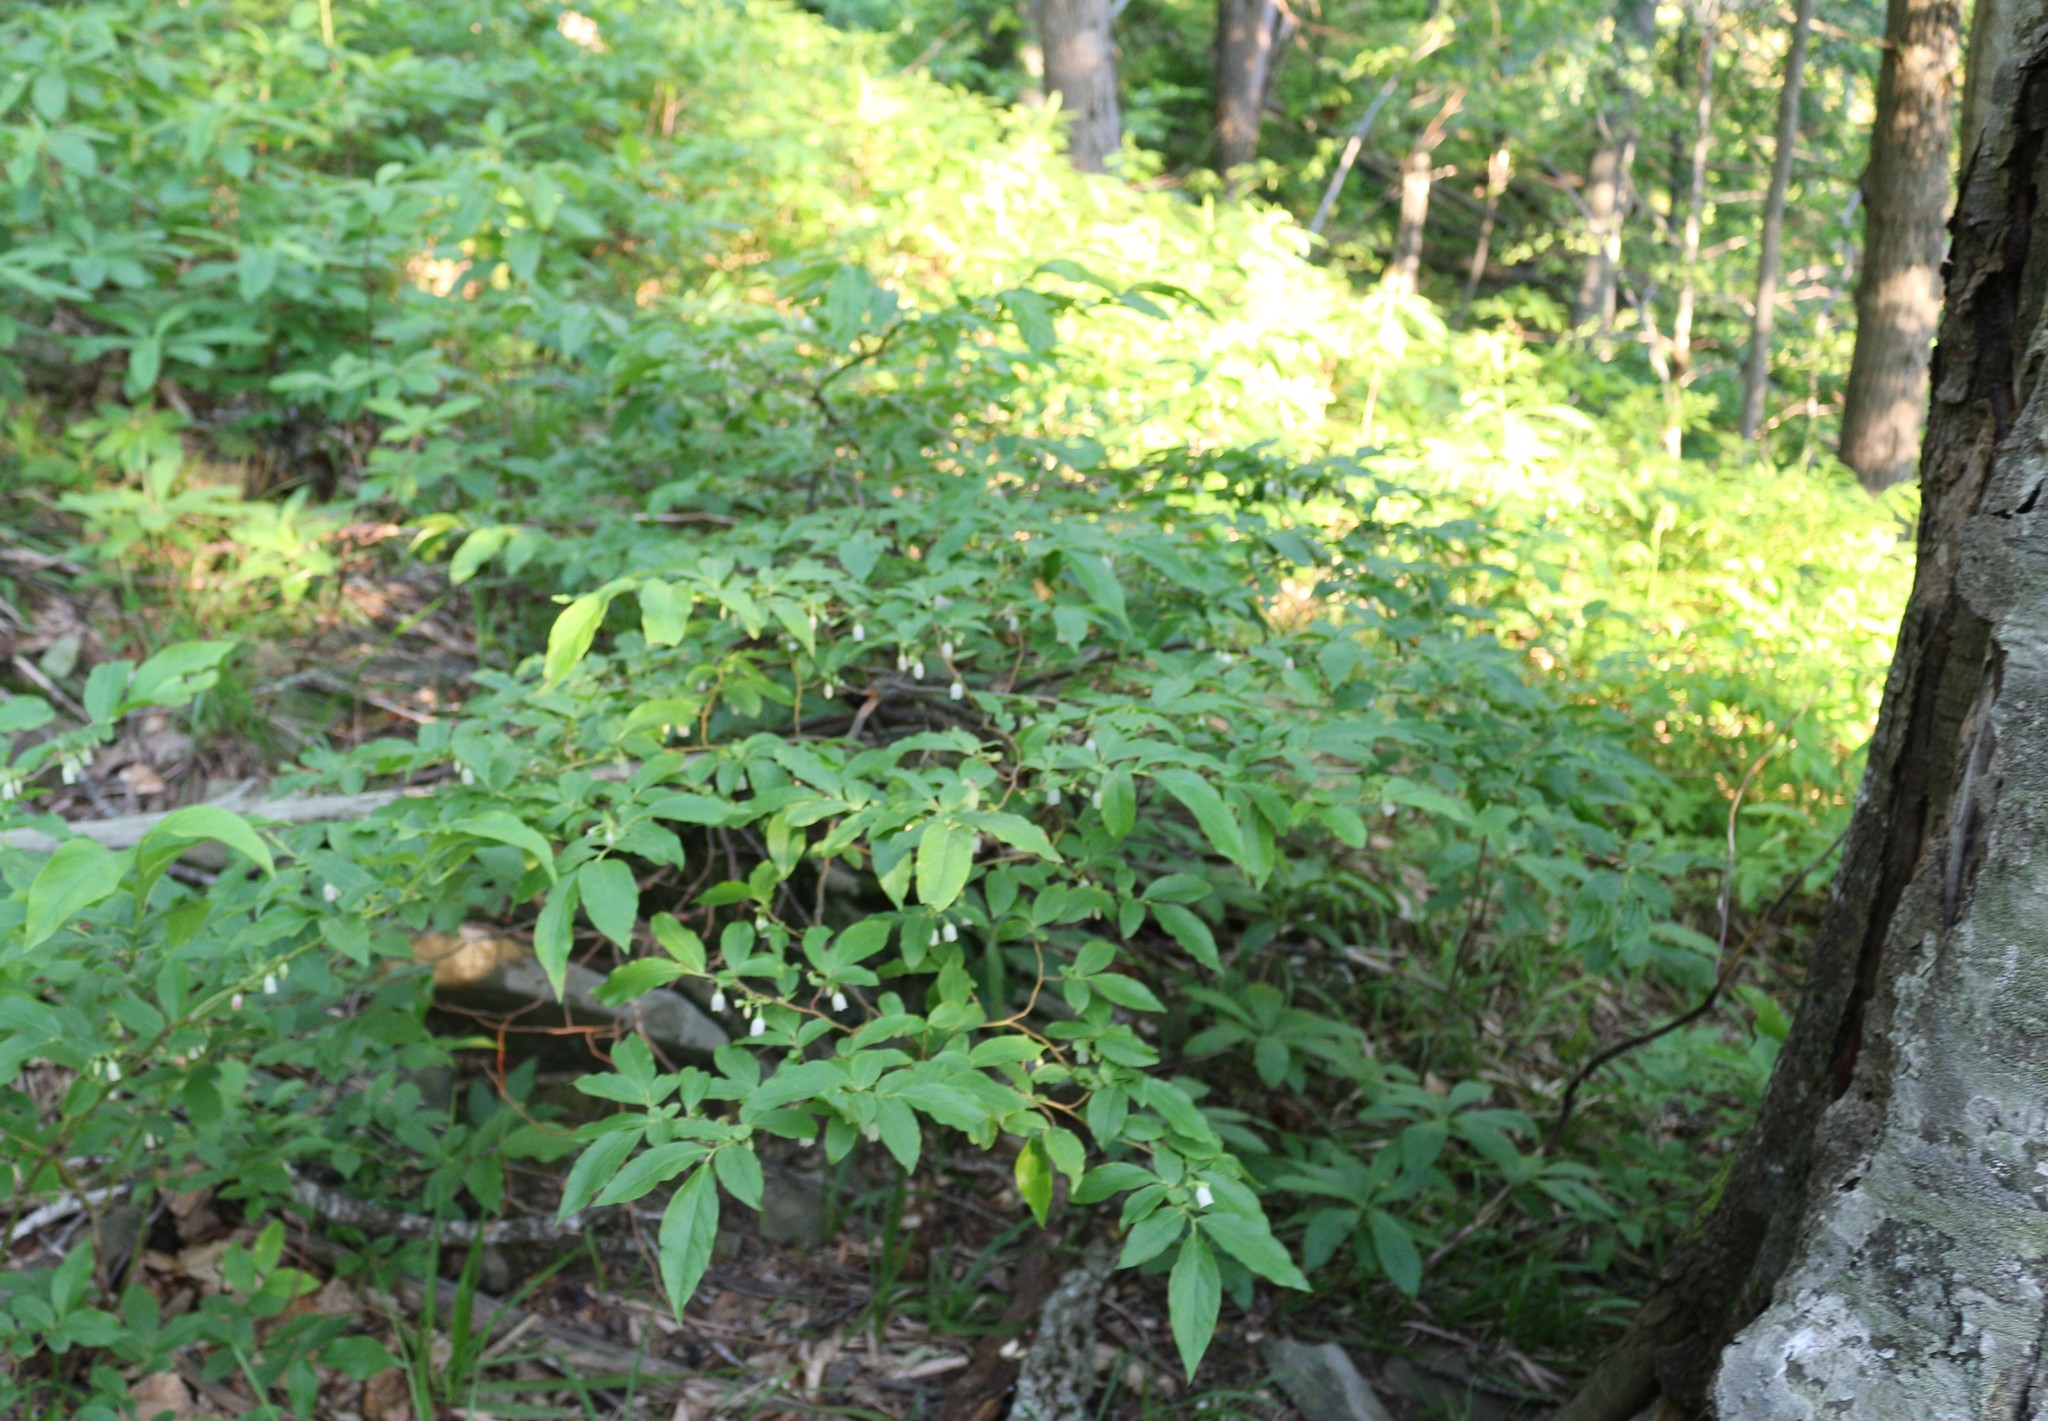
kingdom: Plantae
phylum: Tracheophyta
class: Magnoliopsida
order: Ericales
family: Ericaceae
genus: Vaccinium
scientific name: Vaccinium arctostaphylos
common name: Caucasian whortleberry
